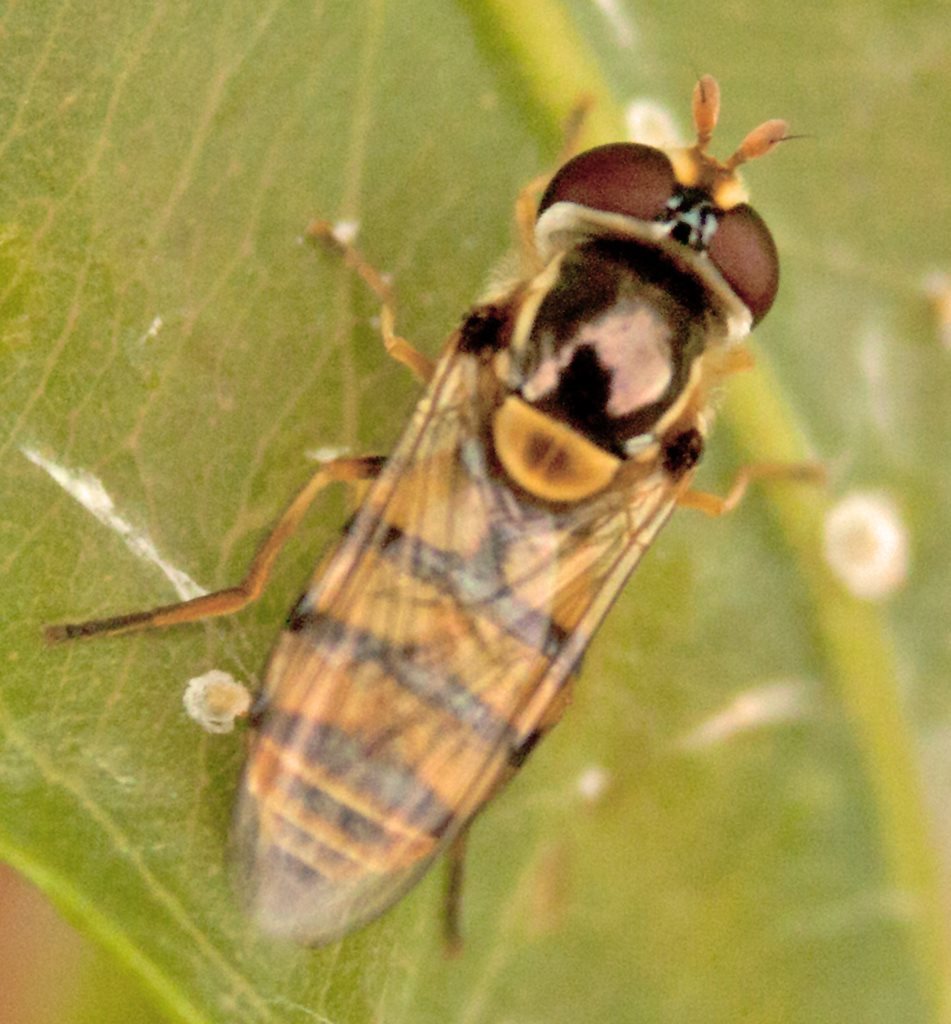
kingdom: Animalia
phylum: Arthropoda
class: Insecta
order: Diptera
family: Syrphidae
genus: Simosyrphus
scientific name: Simosyrphus grandicornis
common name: Hoverfly
